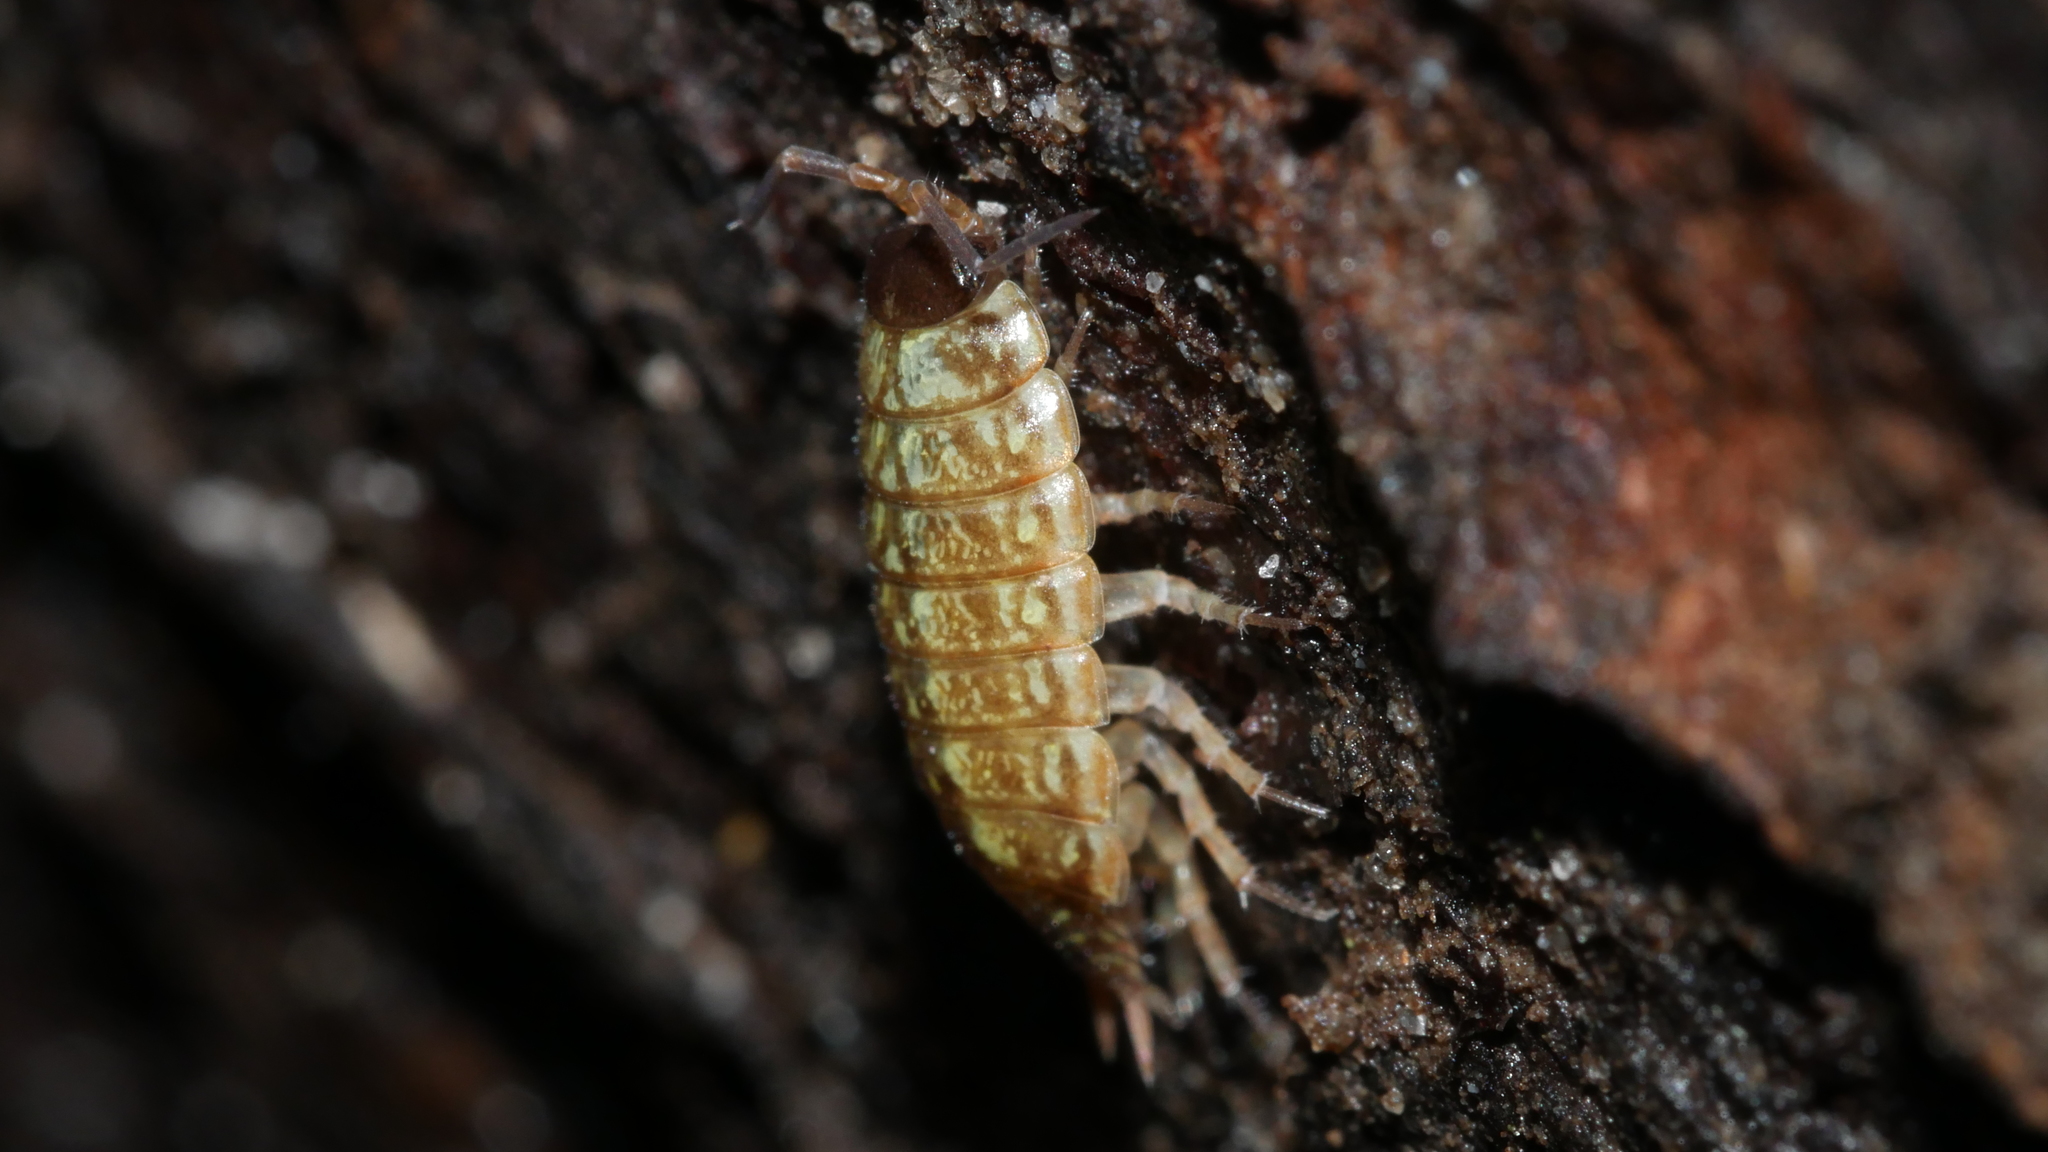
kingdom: Animalia
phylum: Arthropoda
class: Malacostraca
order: Isopoda
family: Philosciidae
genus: Philoscia
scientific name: Philoscia muscorum
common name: Common striped woodlouse
